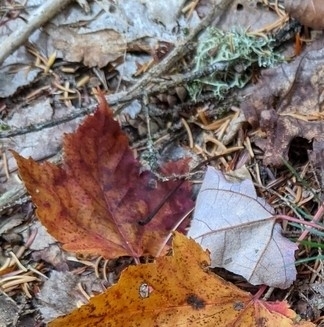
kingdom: Plantae
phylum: Tracheophyta
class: Magnoliopsida
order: Sapindales
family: Sapindaceae
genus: Acer
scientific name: Acer rubrum
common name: Red maple
